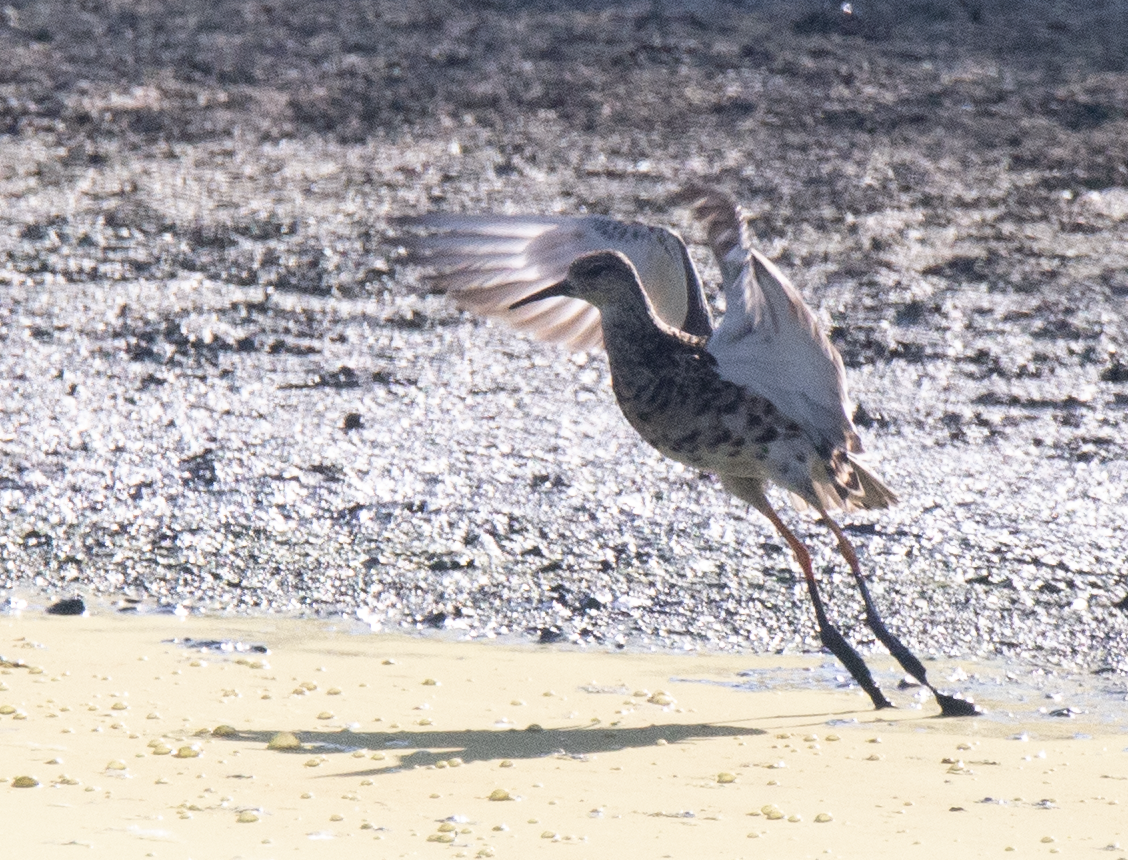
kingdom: Animalia
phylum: Chordata
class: Aves
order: Charadriiformes
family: Scolopacidae
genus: Calidris
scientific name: Calidris pugnax
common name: Ruff
